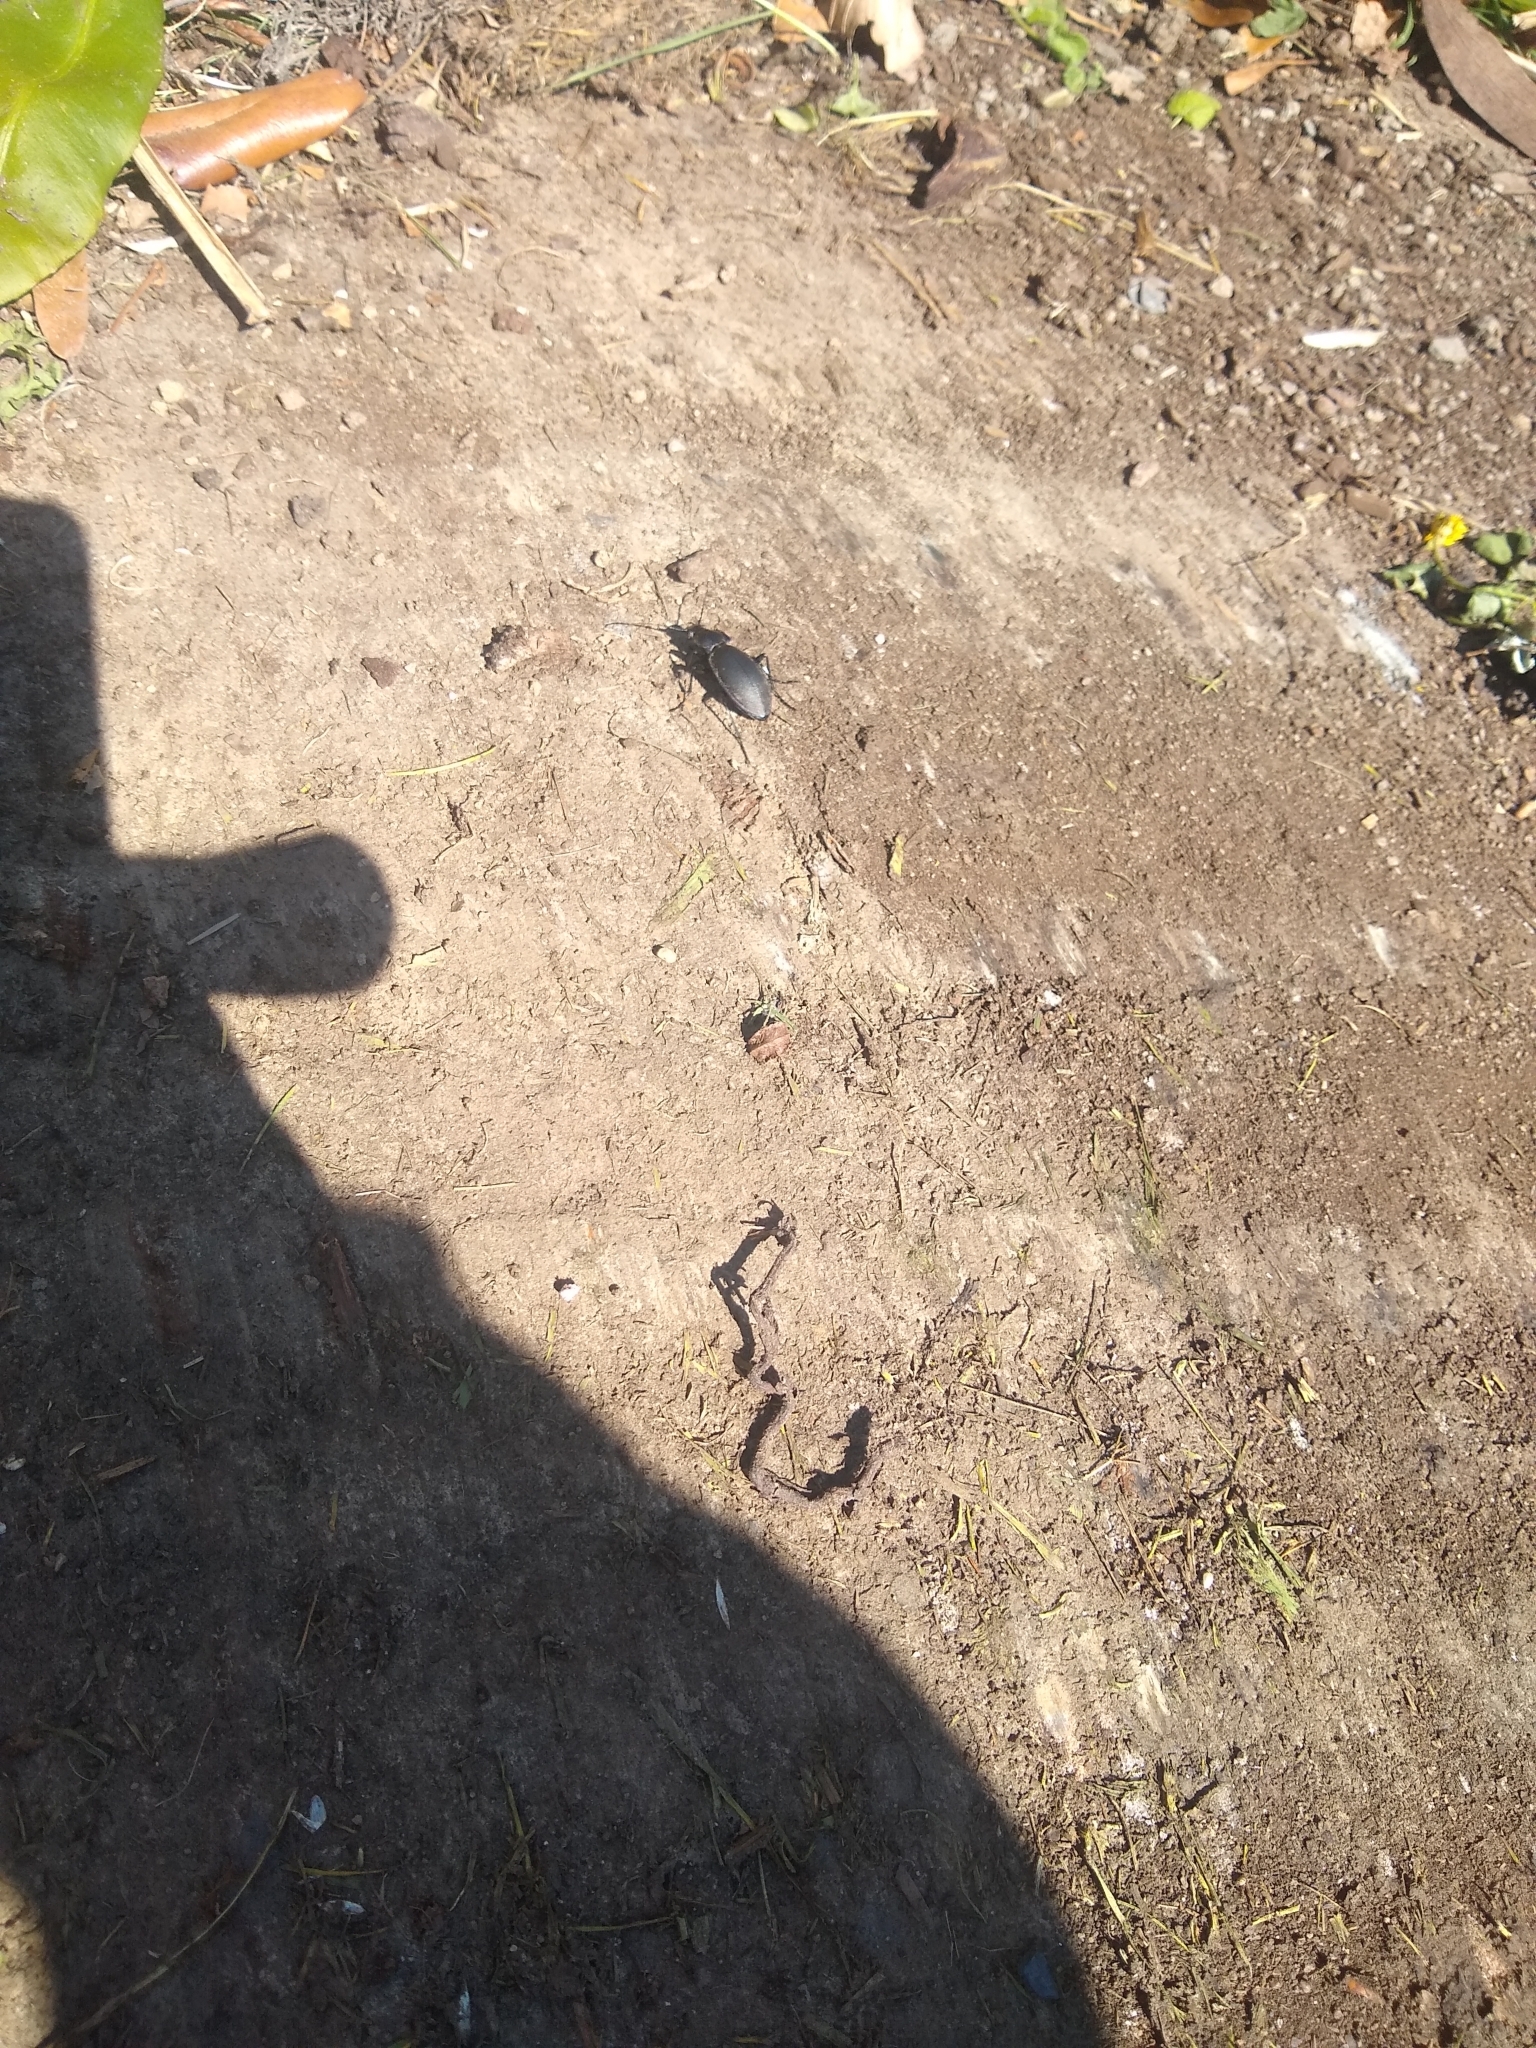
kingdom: Animalia
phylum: Arthropoda
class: Insecta
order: Coleoptera
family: Carabidae
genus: Carabus
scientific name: Carabus violaceus
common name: Violet ground beetle
